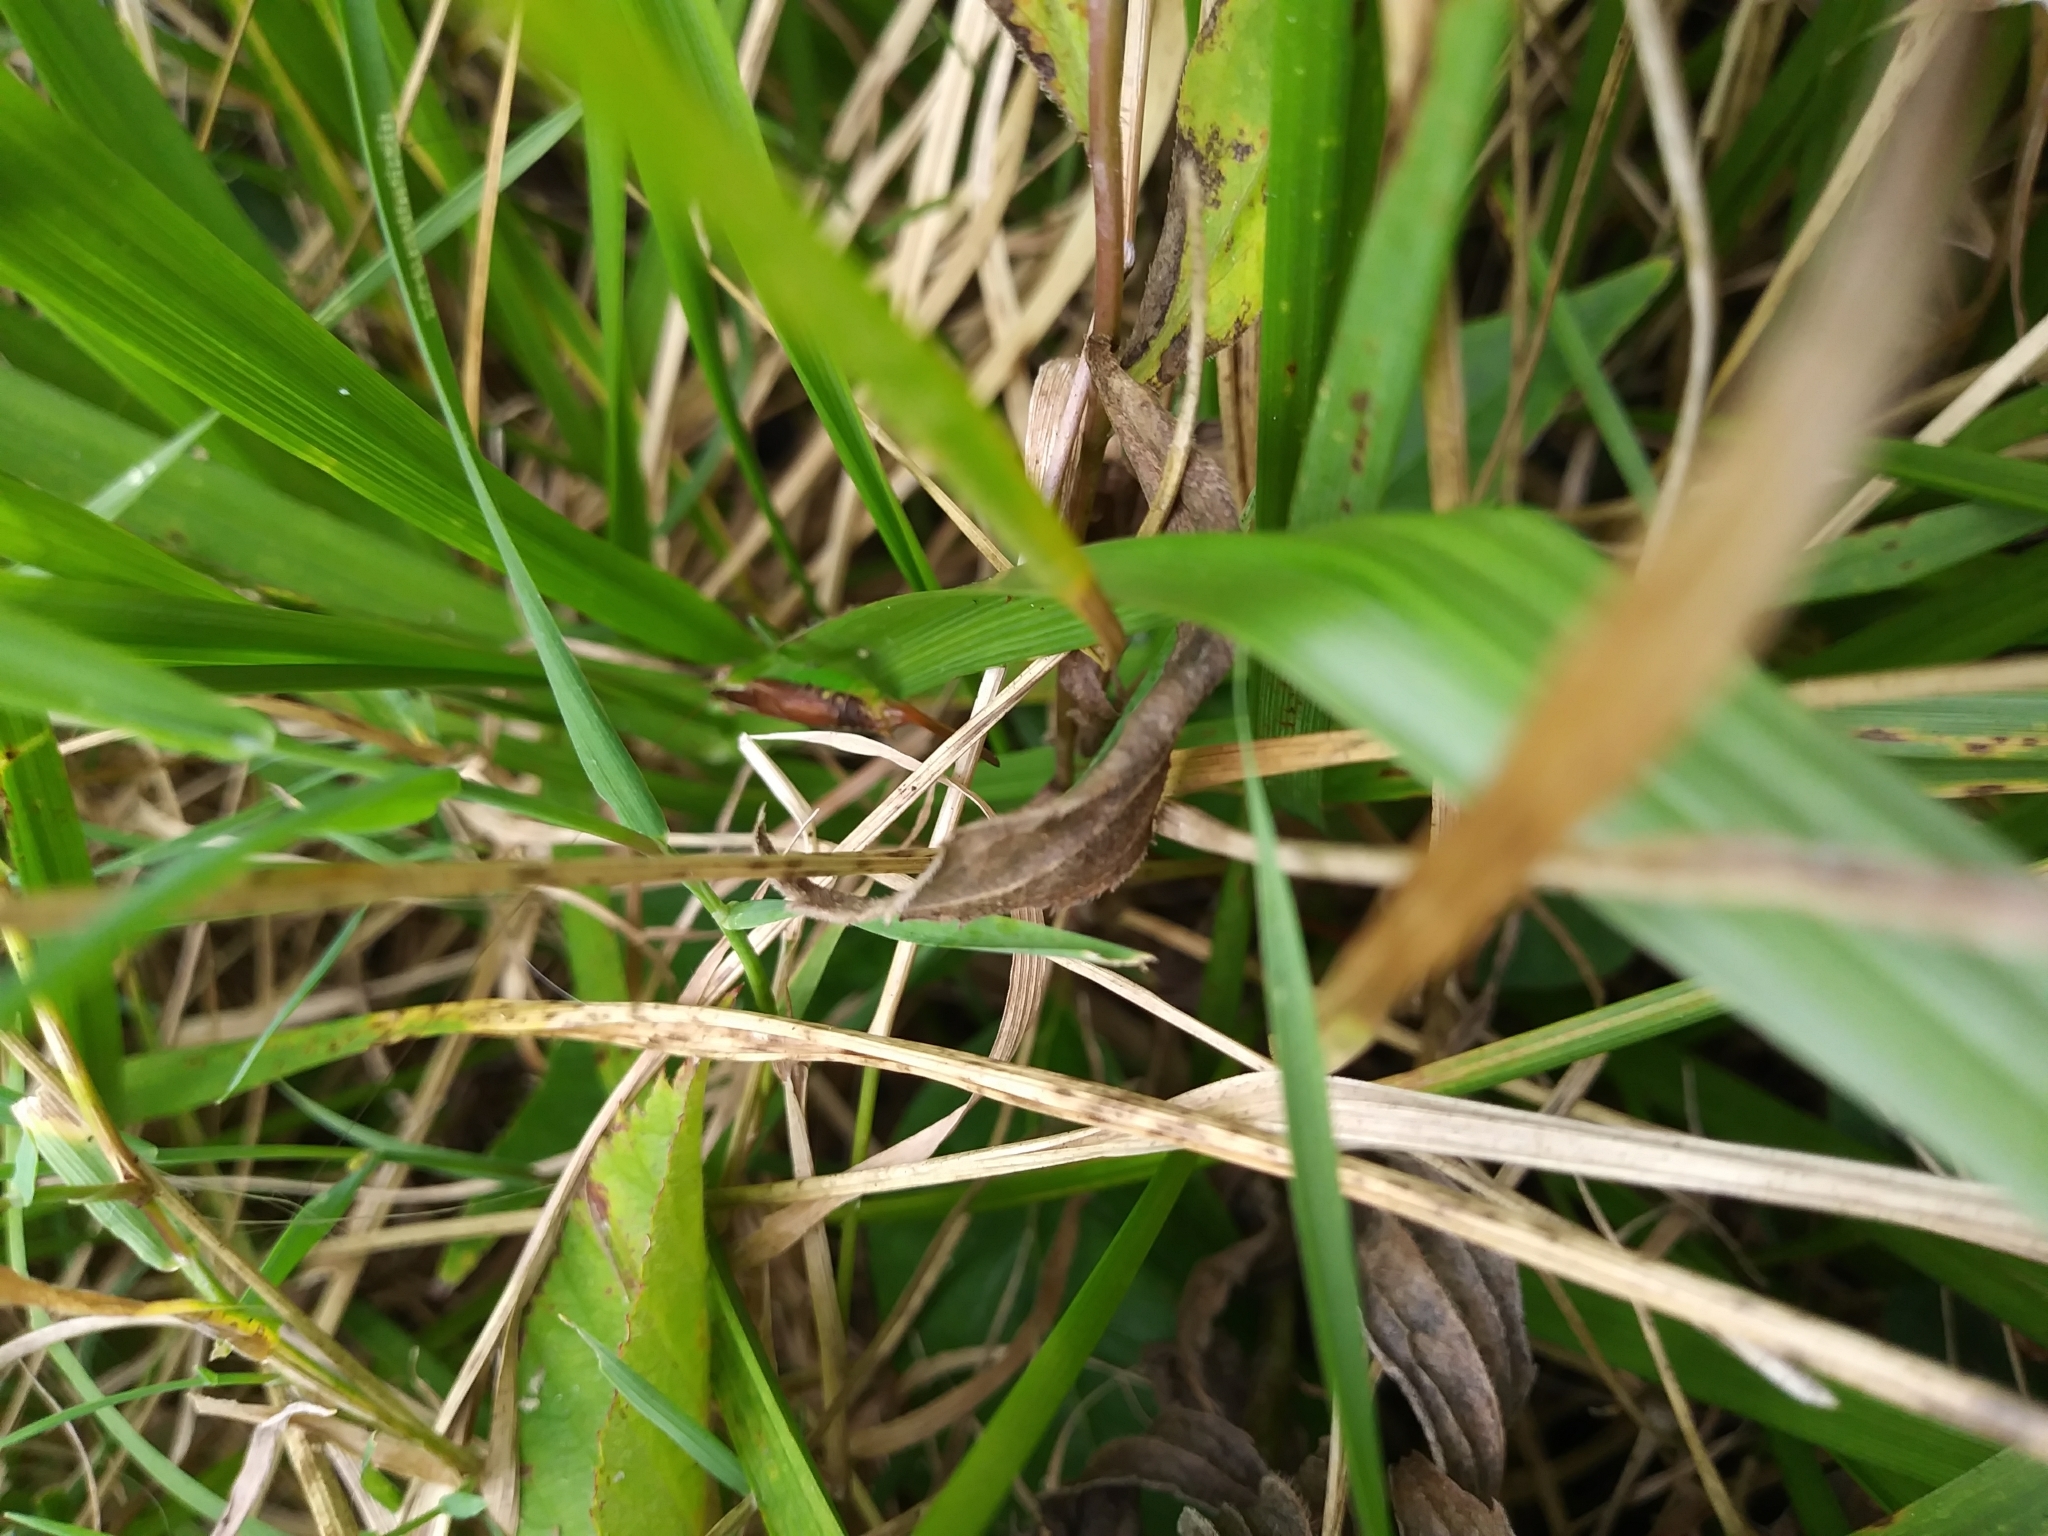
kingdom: Animalia
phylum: Arthropoda
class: Insecta
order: Orthoptera
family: Tettigoniidae
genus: Conocephalus
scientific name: Conocephalus brevipennis
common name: Short-winged meadow katydid
